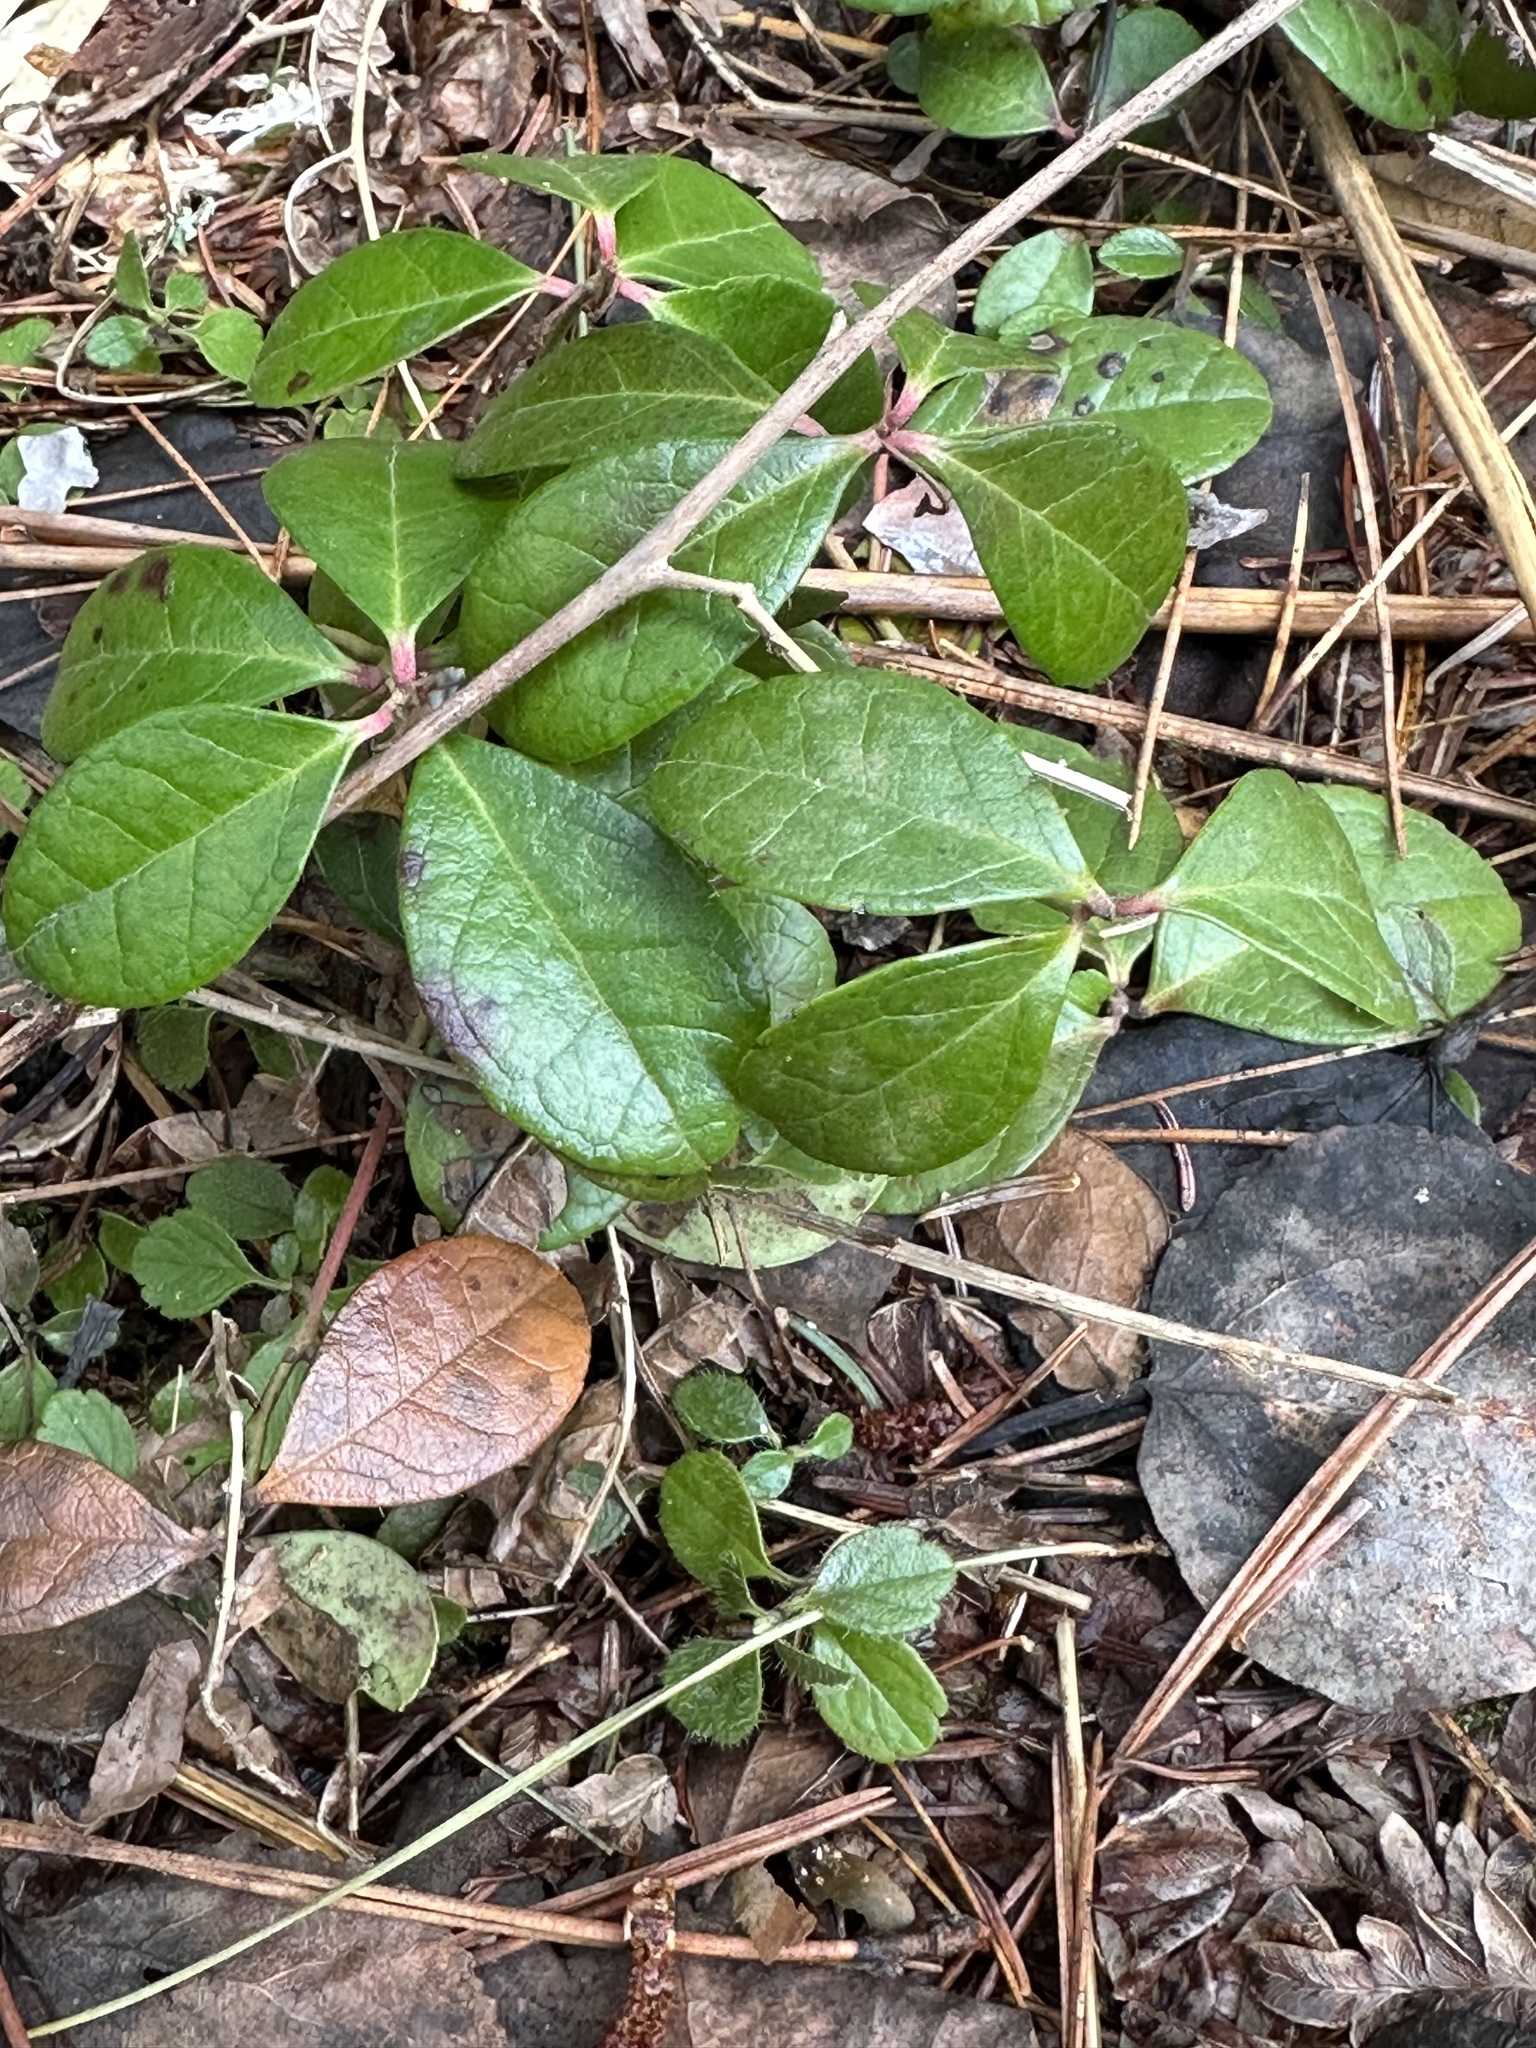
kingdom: Plantae
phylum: Tracheophyta
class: Magnoliopsida
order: Ericales
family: Ericaceae
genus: Gaultheria
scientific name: Gaultheria procumbens
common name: Checkerberry
